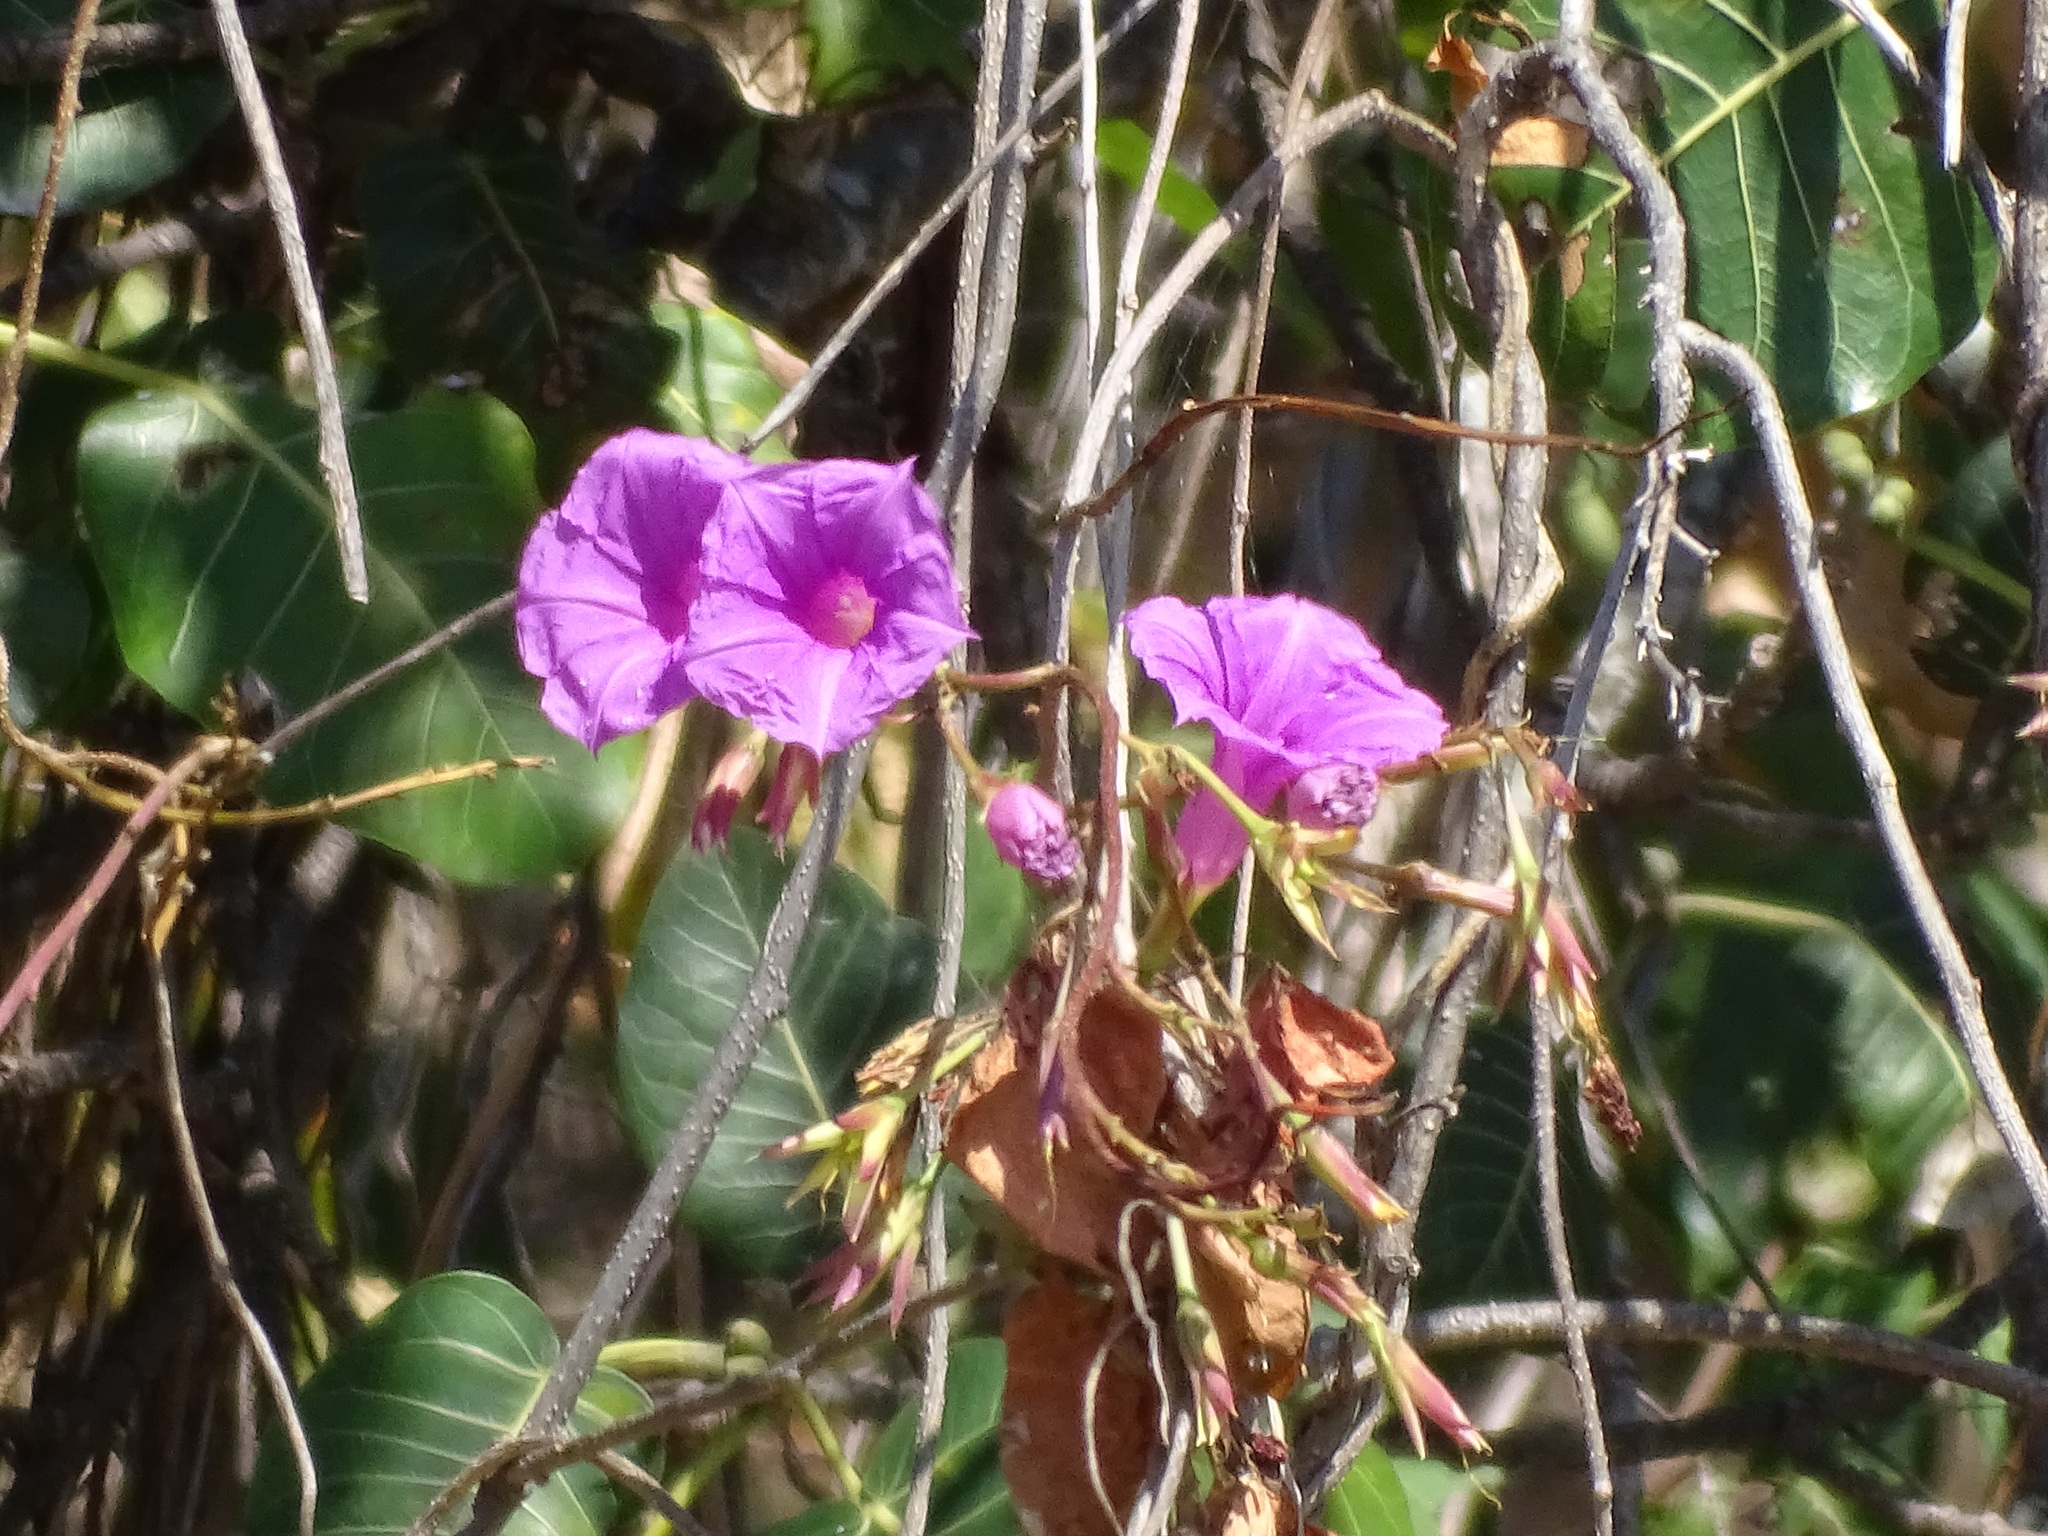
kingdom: Plantae
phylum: Tracheophyta
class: Magnoliopsida
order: Solanales
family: Convolvulaceae
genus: Ipomoea
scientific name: Ipomoea bernoulliana
